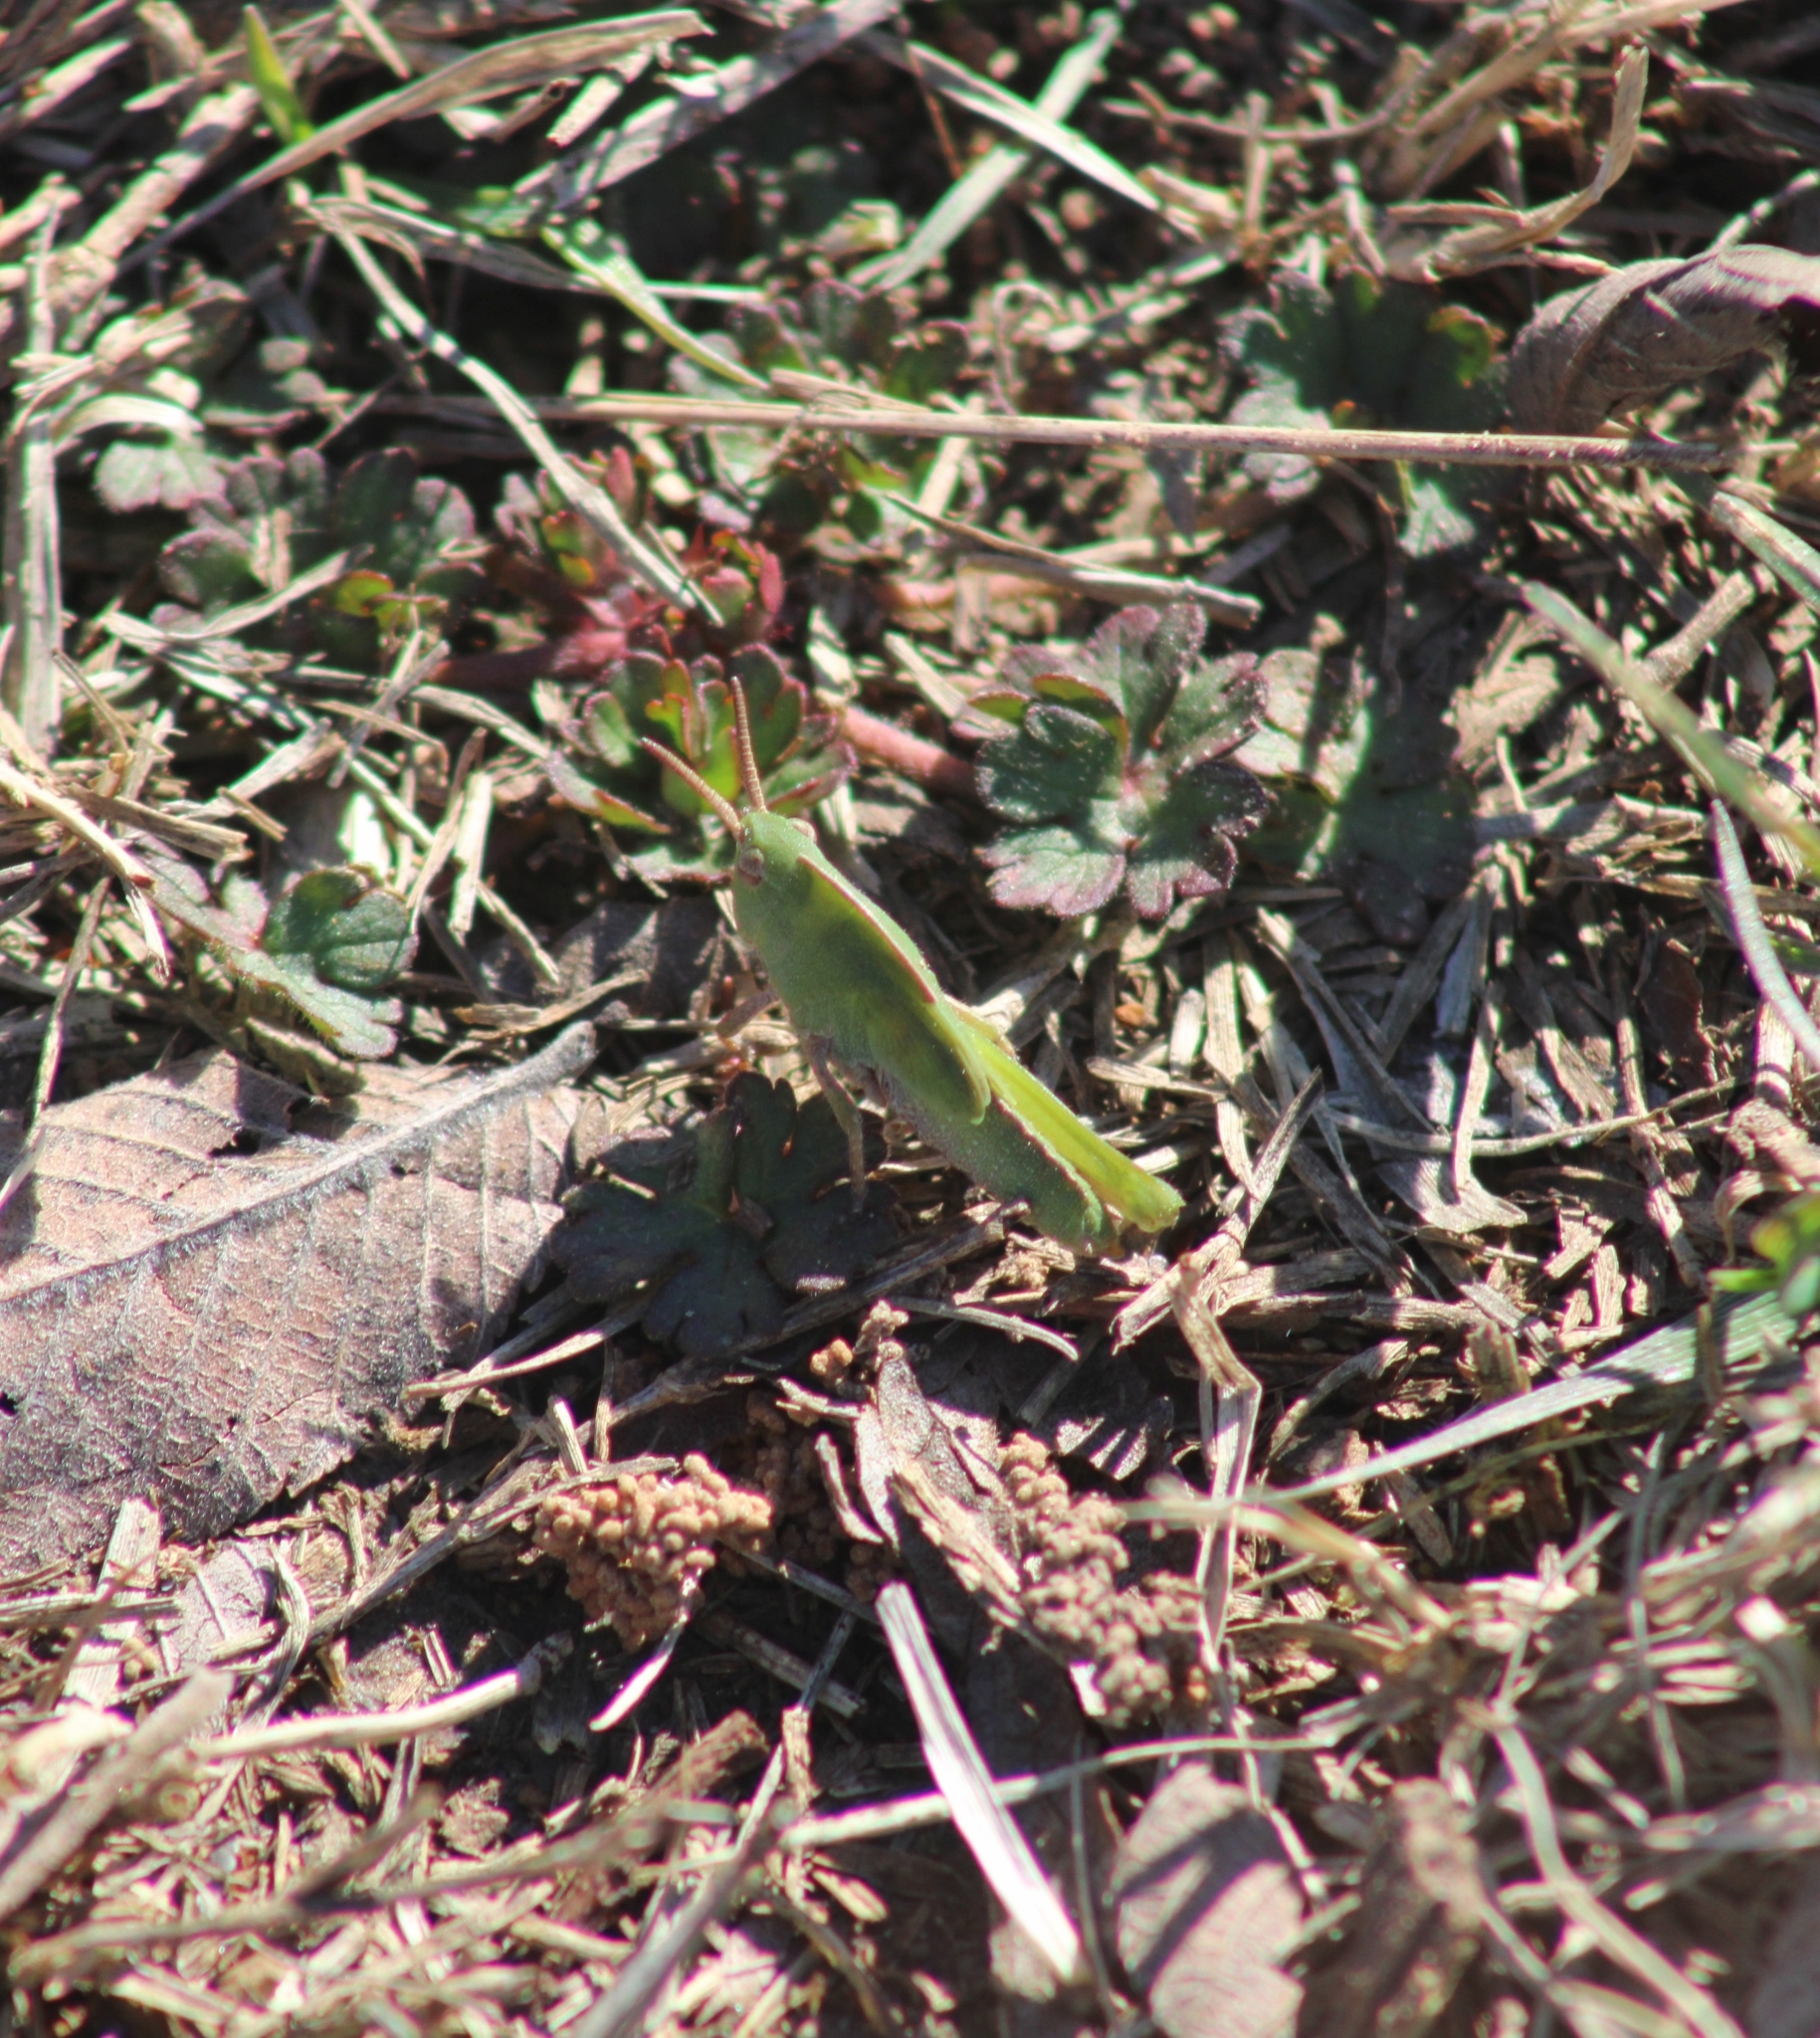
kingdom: Animalia
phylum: Arthropoda
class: Insecta
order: Orthoptera
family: Acrididae
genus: Chortophaga
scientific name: Chortophaga viridifasciata
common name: Green-striped grasshopper
